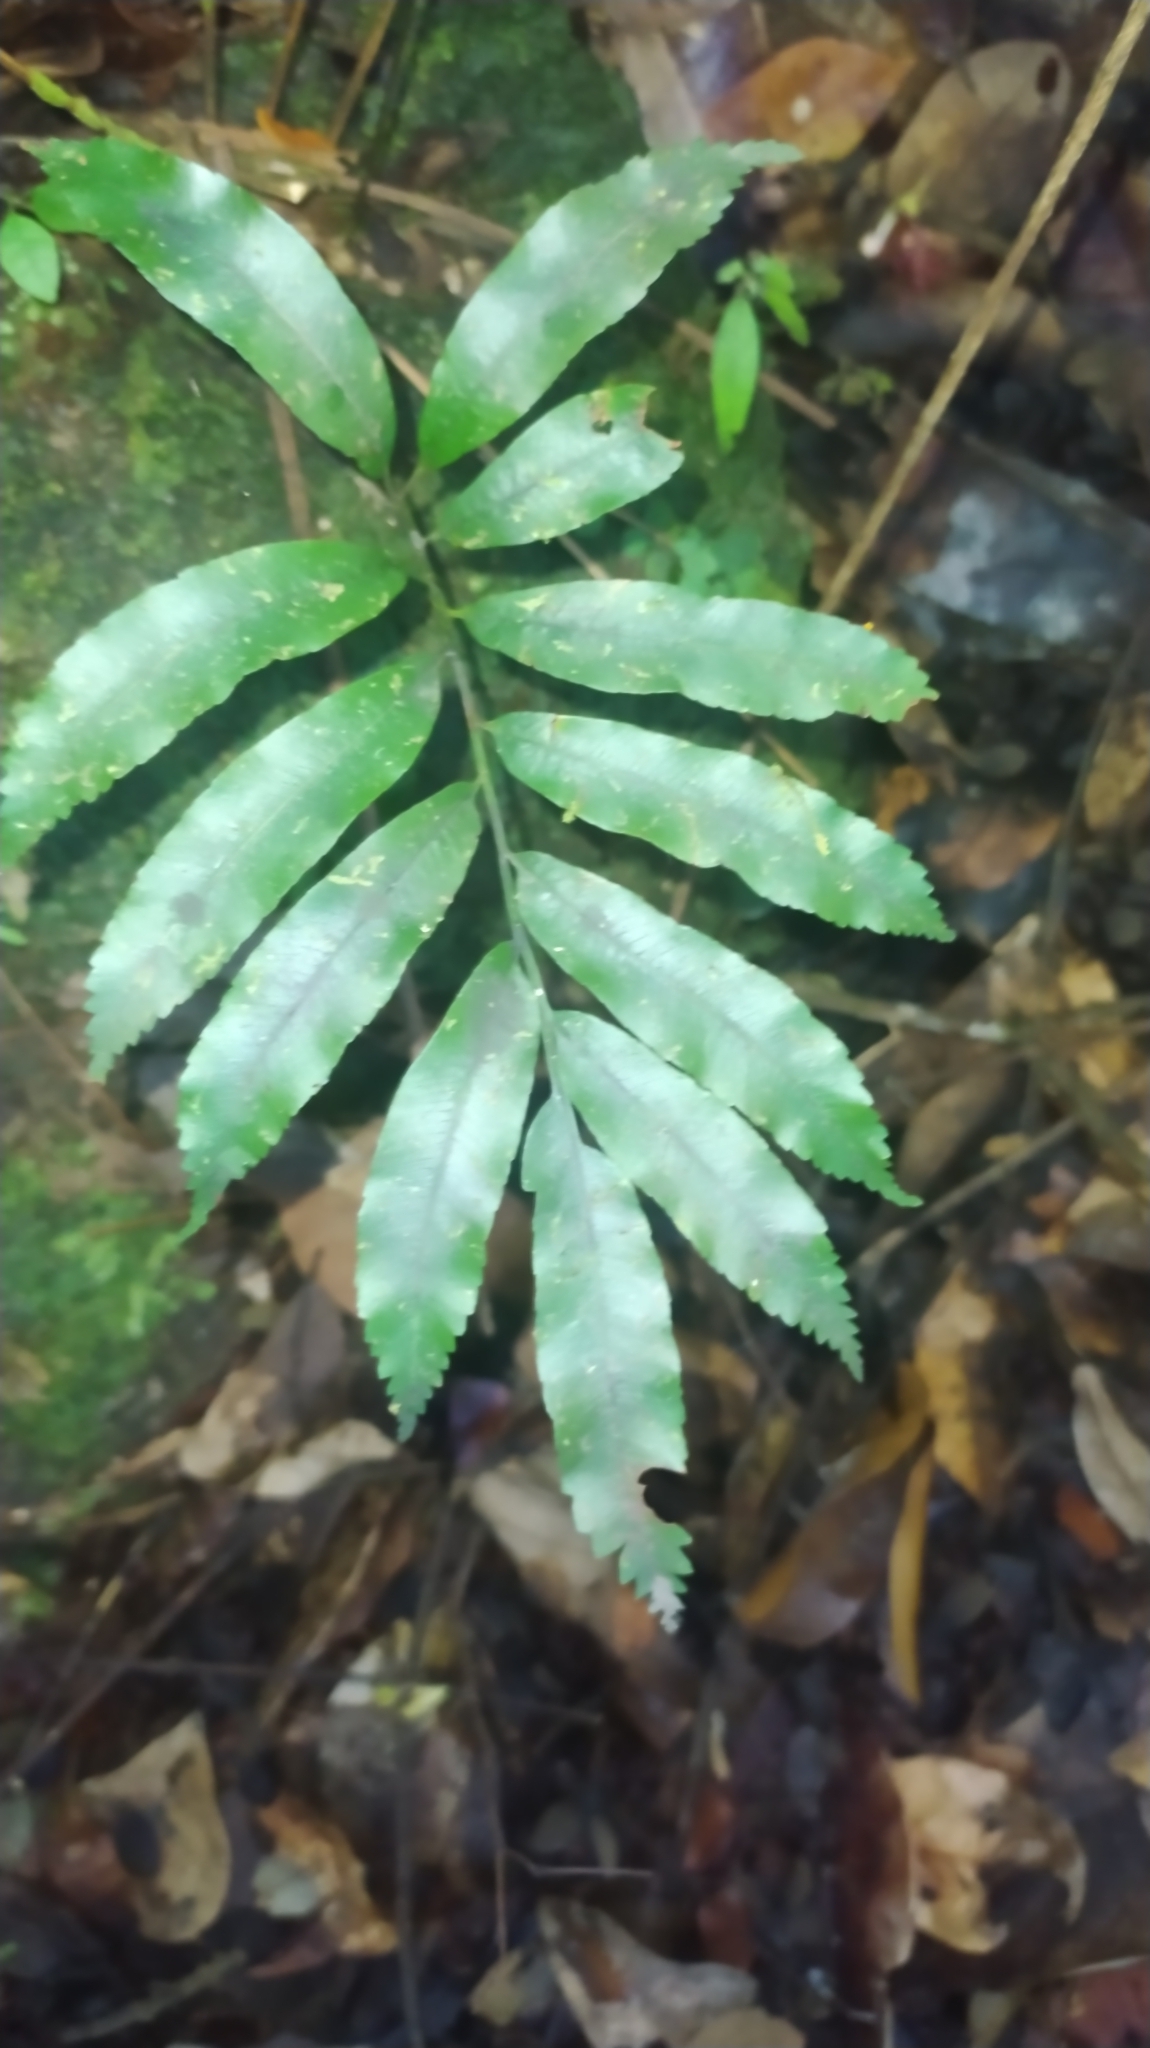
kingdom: Plantae
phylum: Tracheophyta
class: Polypodiopsida
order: Cyatheales
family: Metaxyaceae
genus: Metaxya
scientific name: Metaxya scalaris
